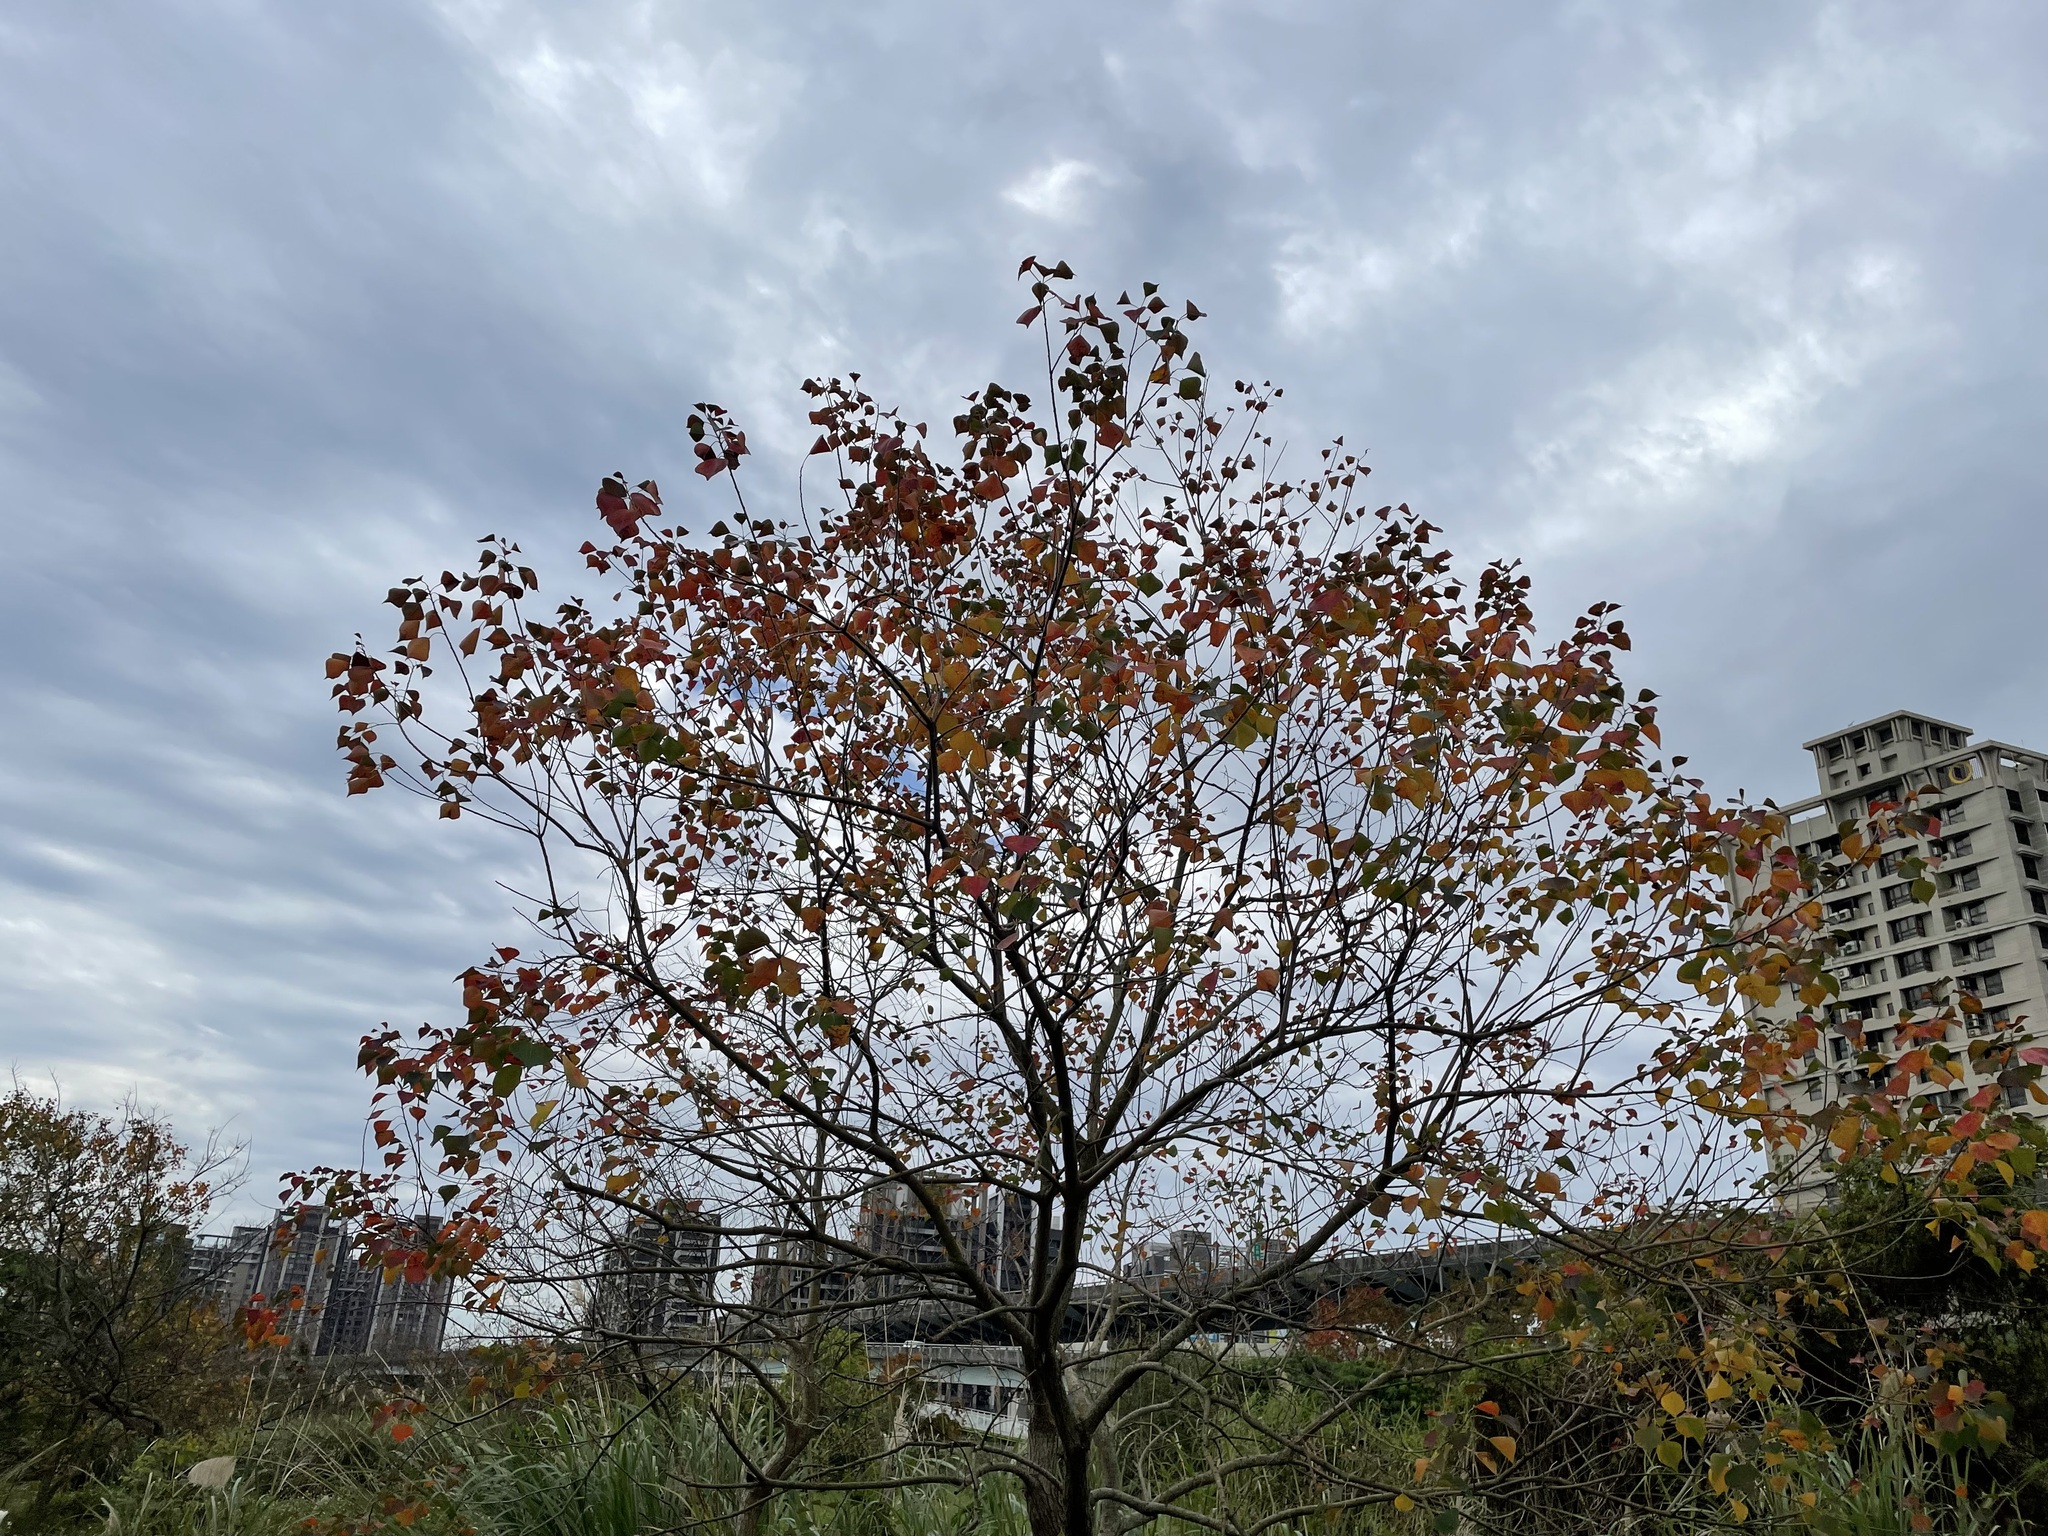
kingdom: Plantae
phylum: Tracheophyta
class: Magnoliopsida
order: Malpighiales
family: Euphorbiaceae
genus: Triadica
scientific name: Triadica sebifera
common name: Chinese tallow
